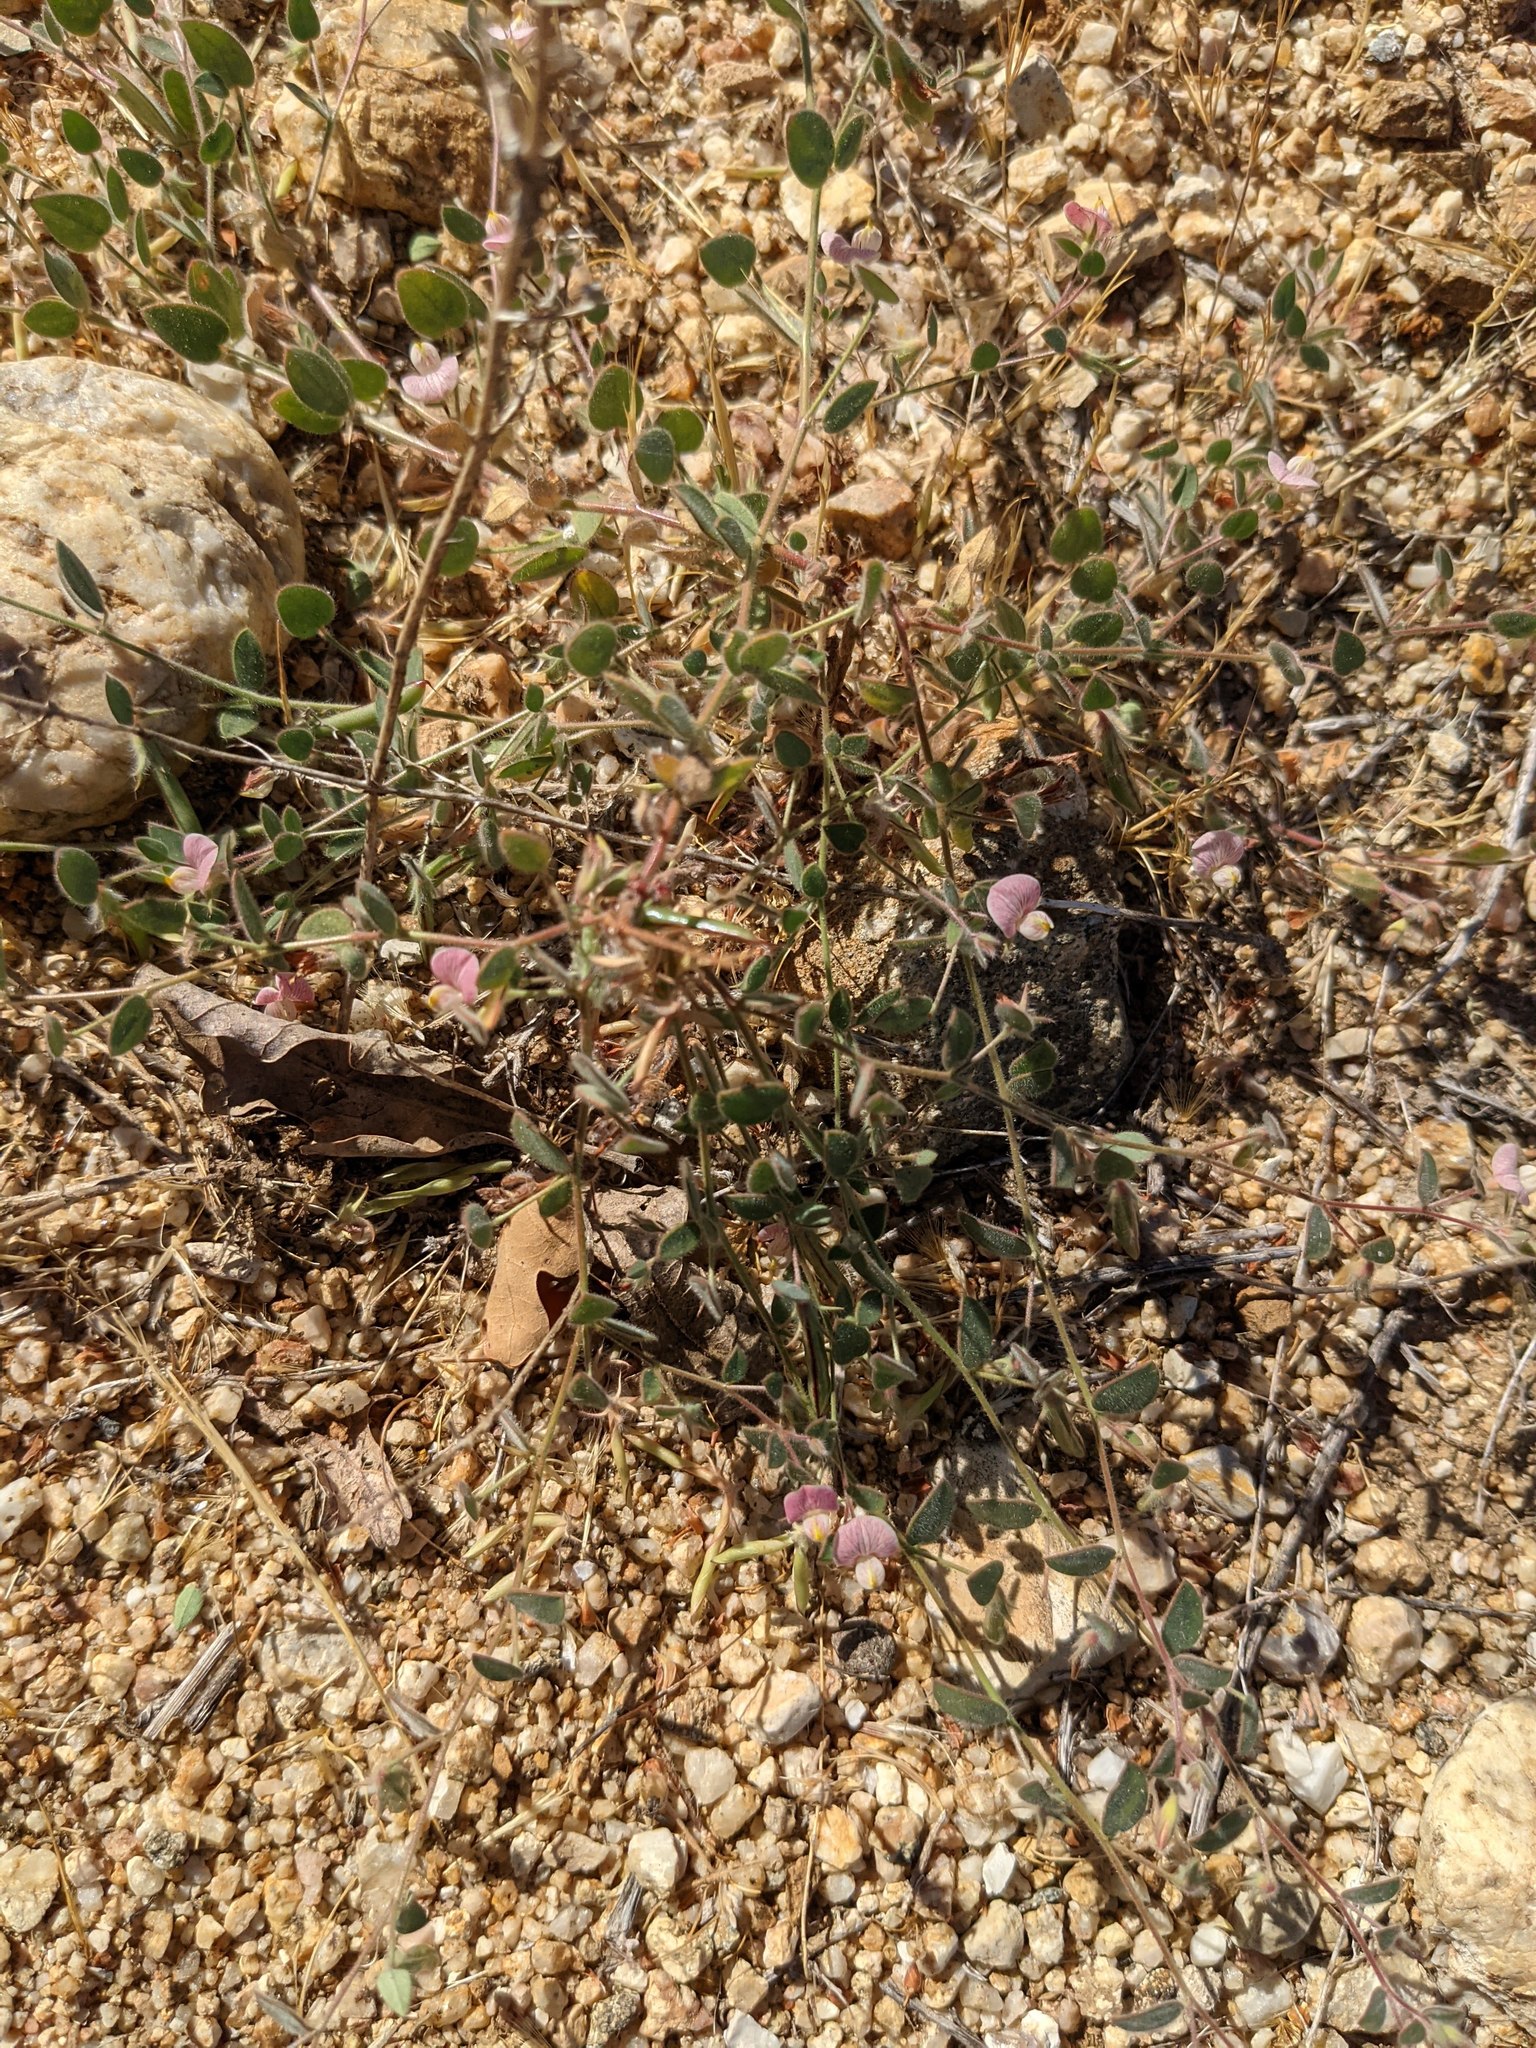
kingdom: Plantae
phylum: Tracheophyta
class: Magnoliopsida
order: Fabales
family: Fabaceae
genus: Acmispon
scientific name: Acmispon americanus
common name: American bird's-foot trefoil
